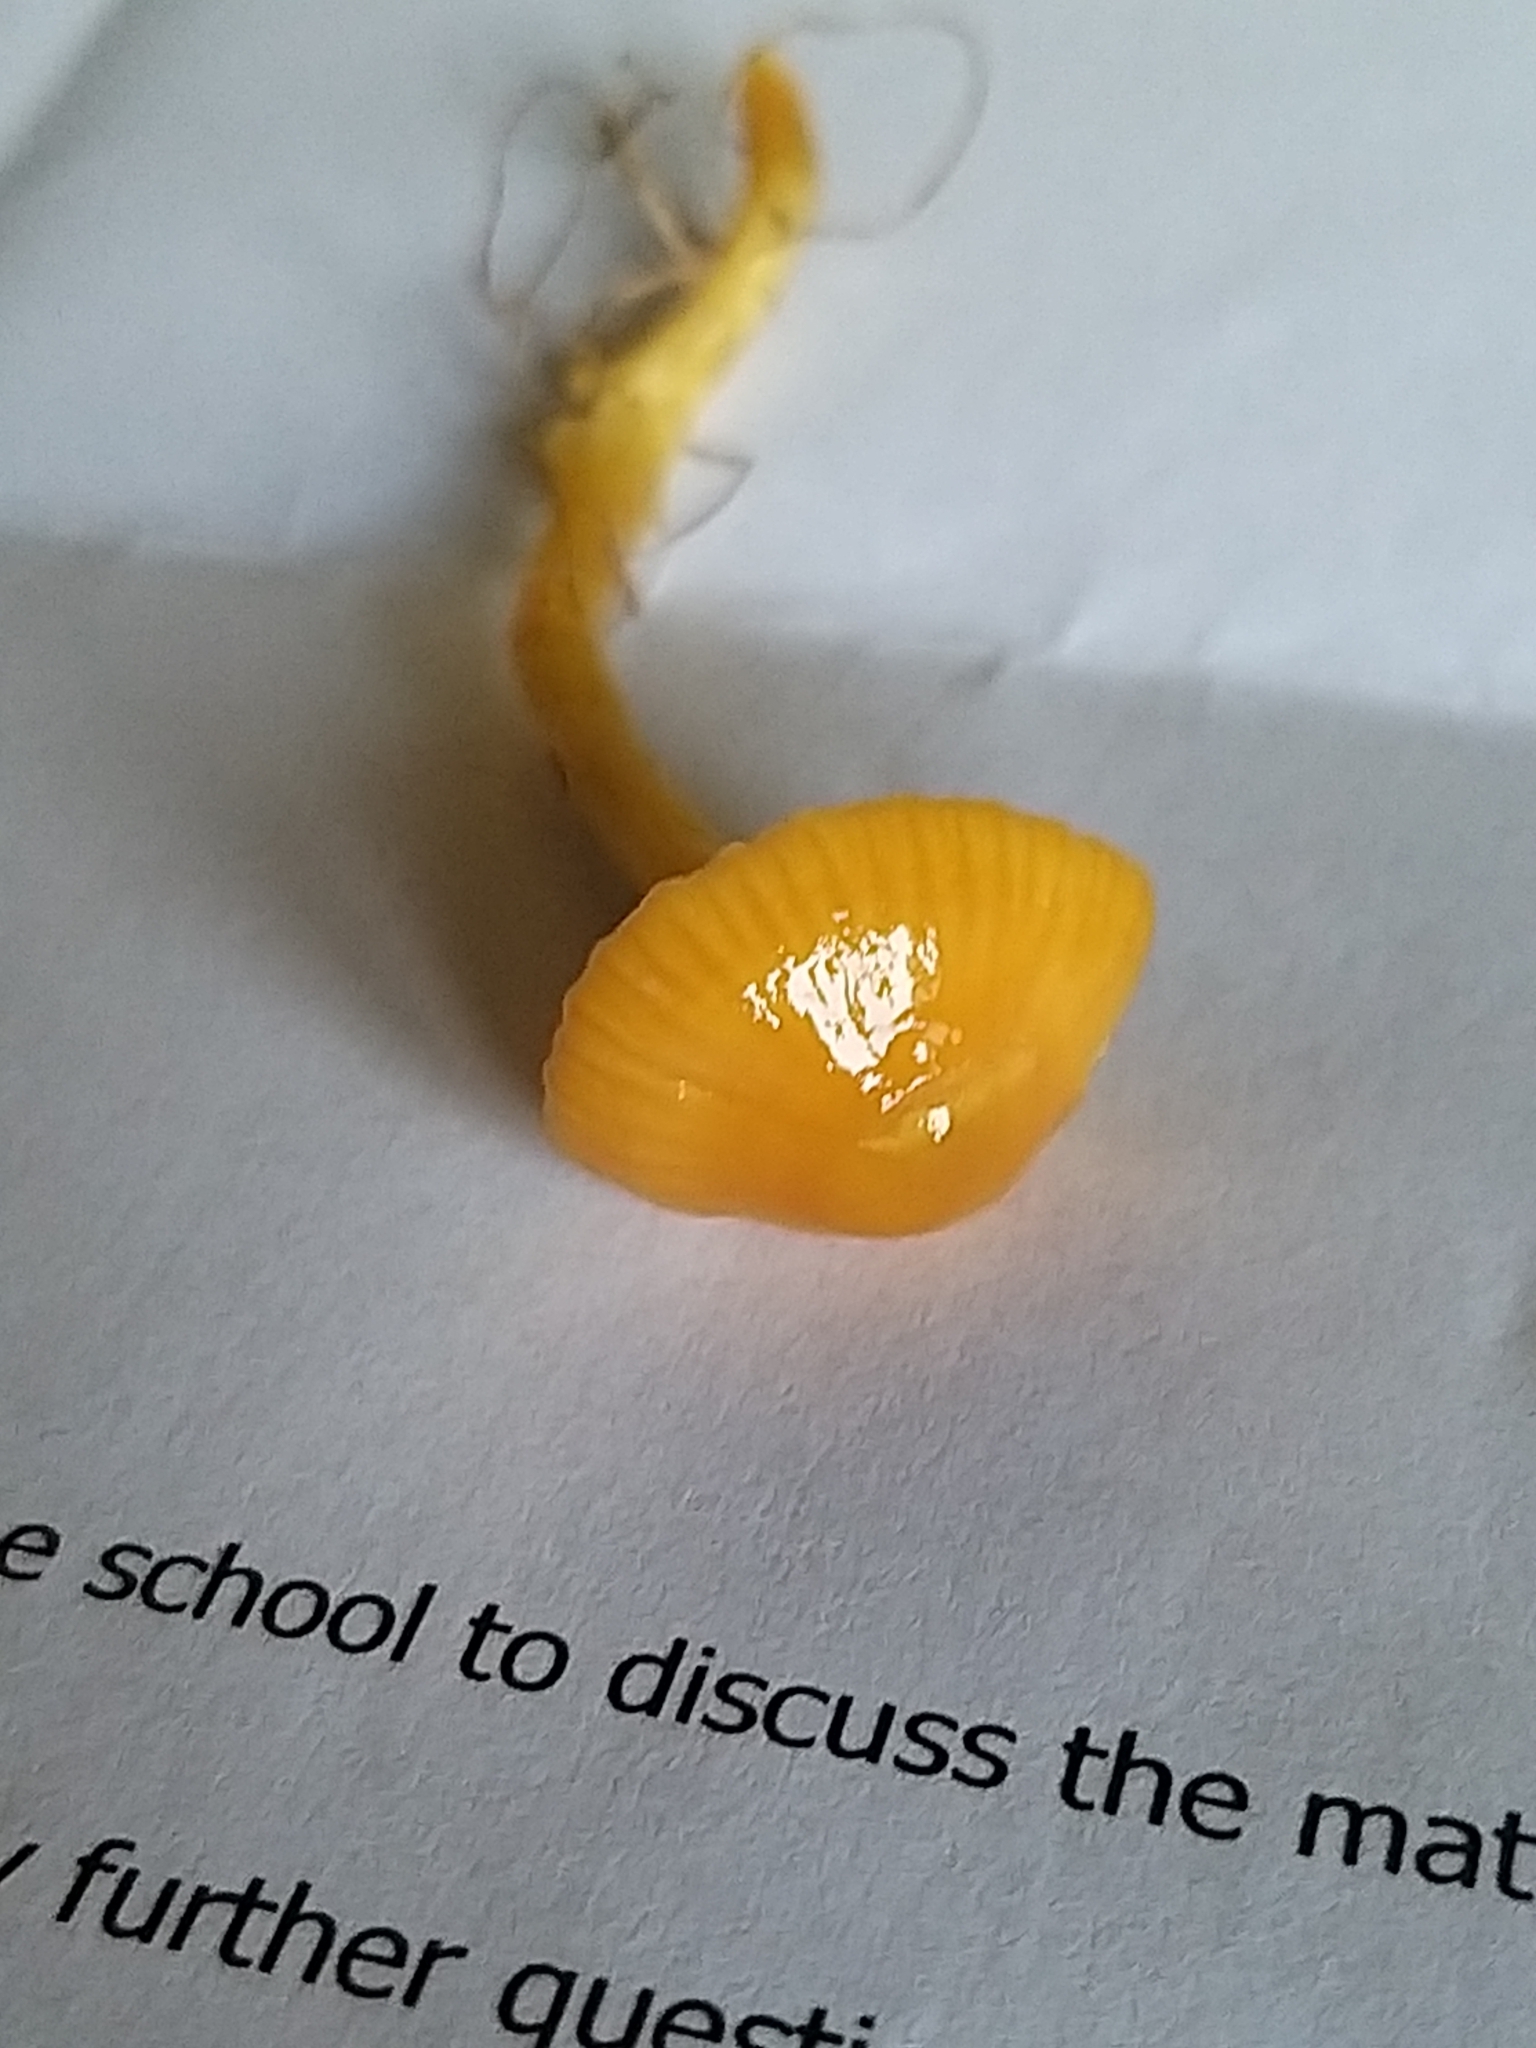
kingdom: Fungi
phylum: Basidiomycota
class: Agaricomycetes
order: Agaricales
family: Hygrophoraceae
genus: Hygrocybe
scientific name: Hygrocybe glutinipes
